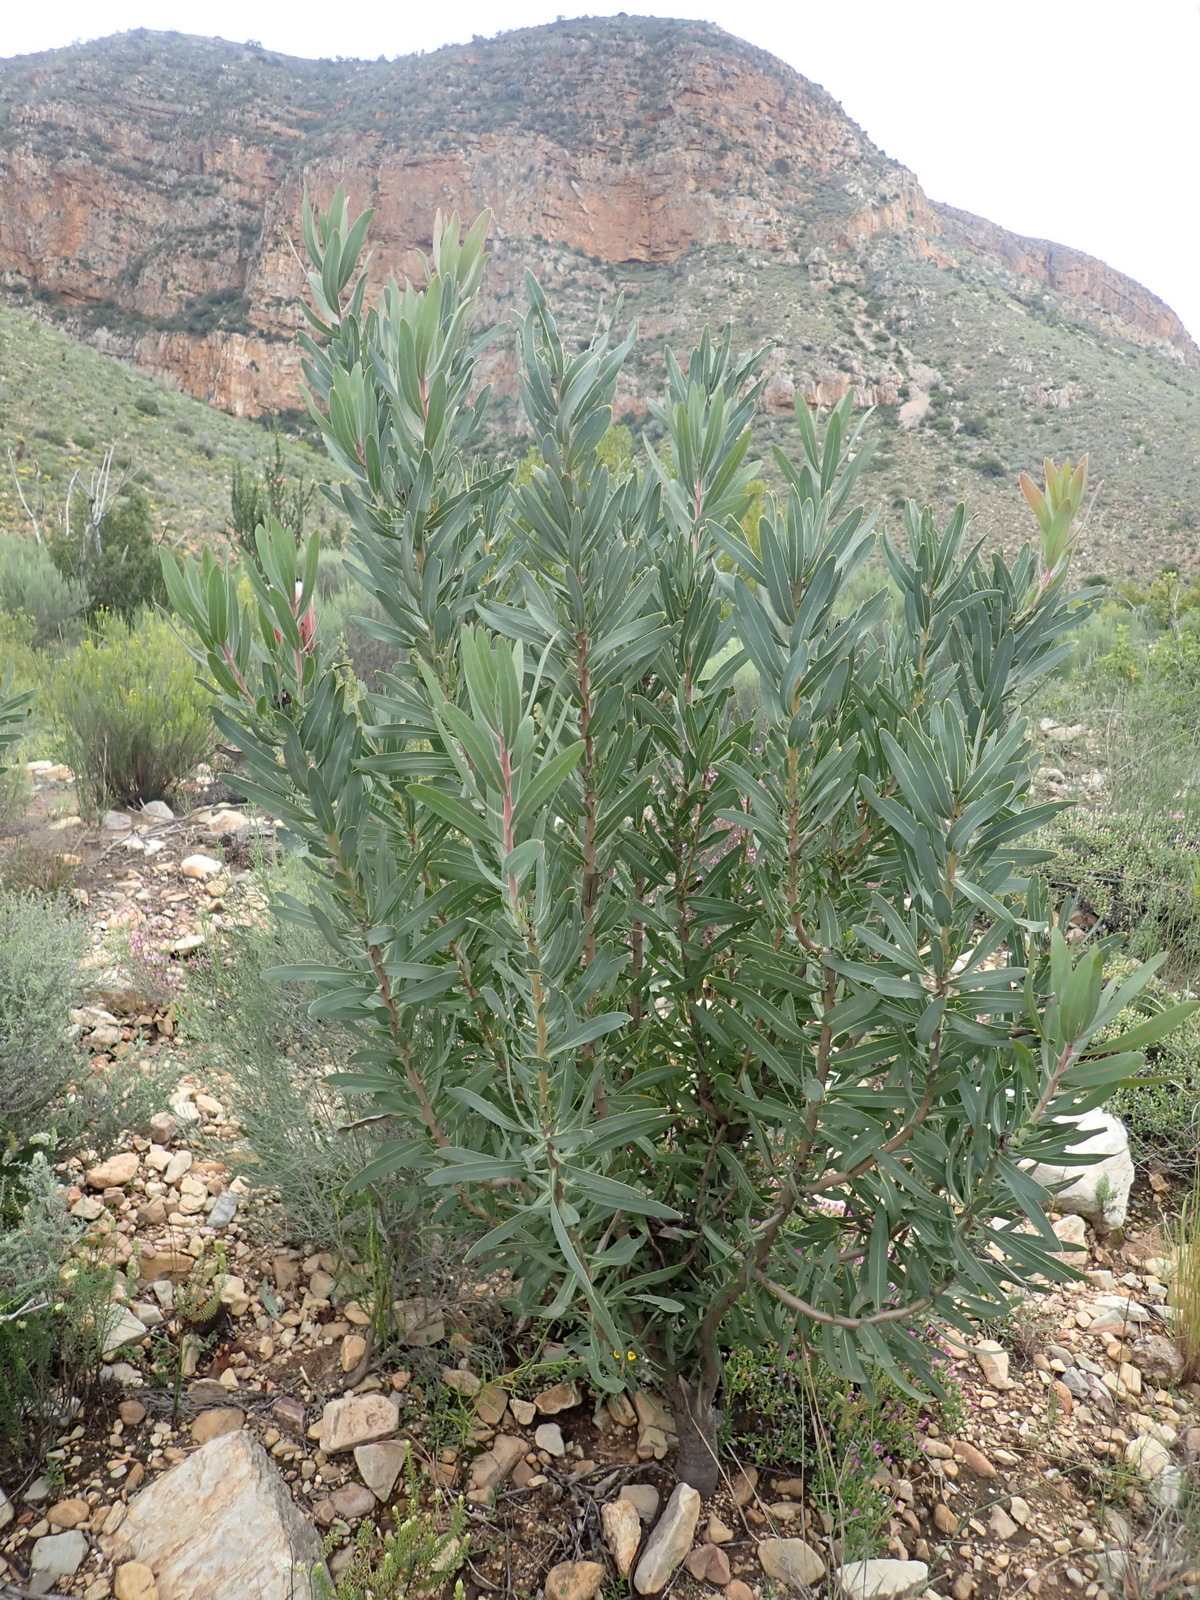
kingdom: Plantae
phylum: Tracheophyta
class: Magnoliopsida
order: Proteales
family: Proteaceae
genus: Protea
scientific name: Protea neriifolia
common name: Blue sugarbush
